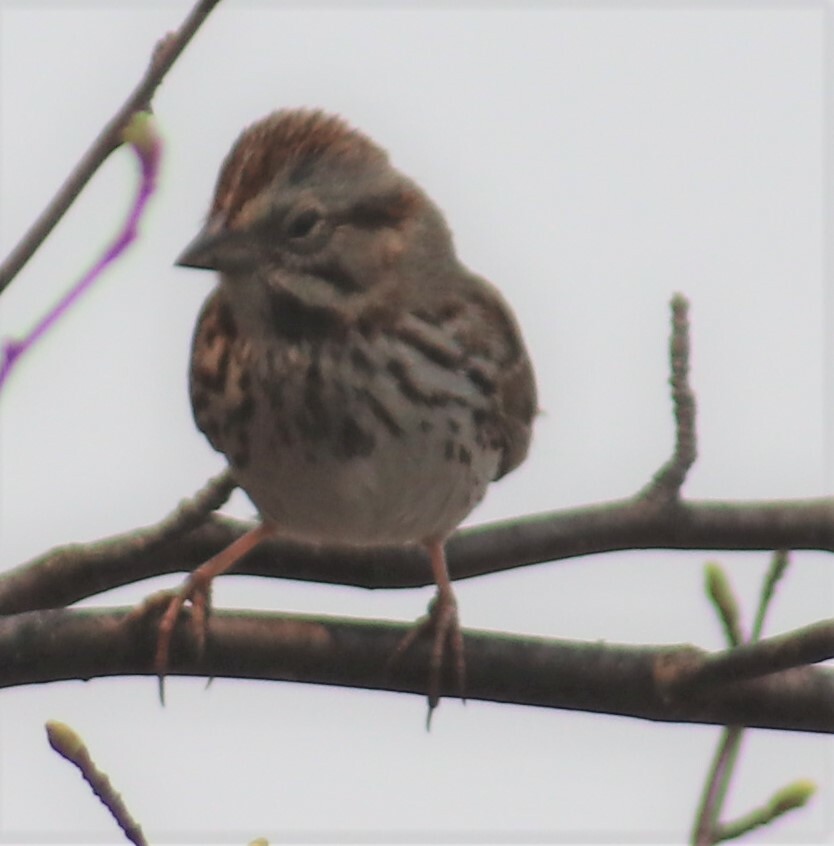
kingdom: Animalia
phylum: Chordata
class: Aves
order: Passeriformes
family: Passerellidae
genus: Melospiza
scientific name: Melospiza melodia
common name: Song sparrow
